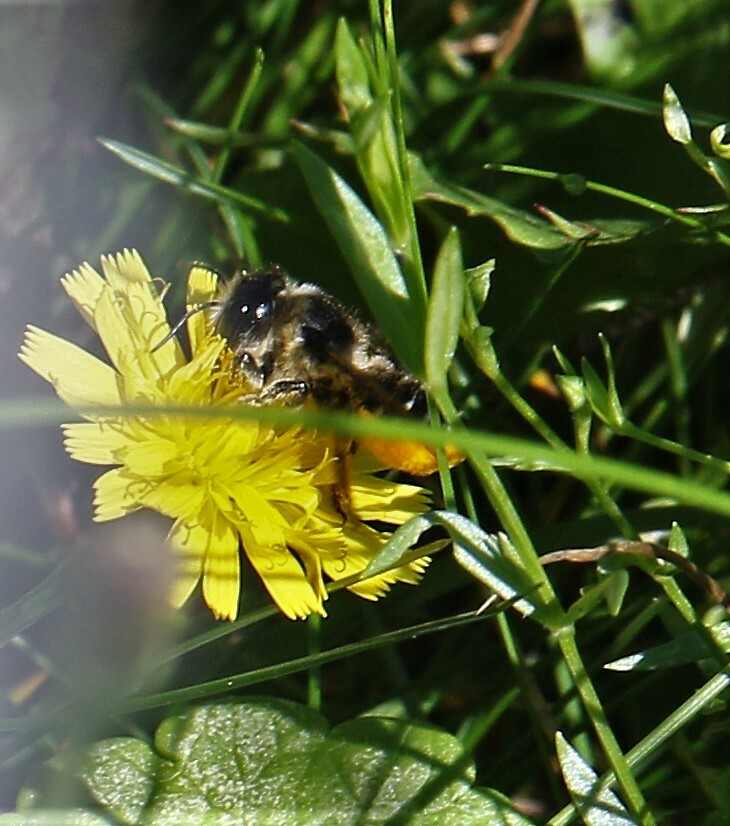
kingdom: Animalia
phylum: Arthropoda
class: Insecta
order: Hymenoptera
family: Megachilidae
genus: Megachile
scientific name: Megachile inermis
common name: Unarmed leafcutter bee
